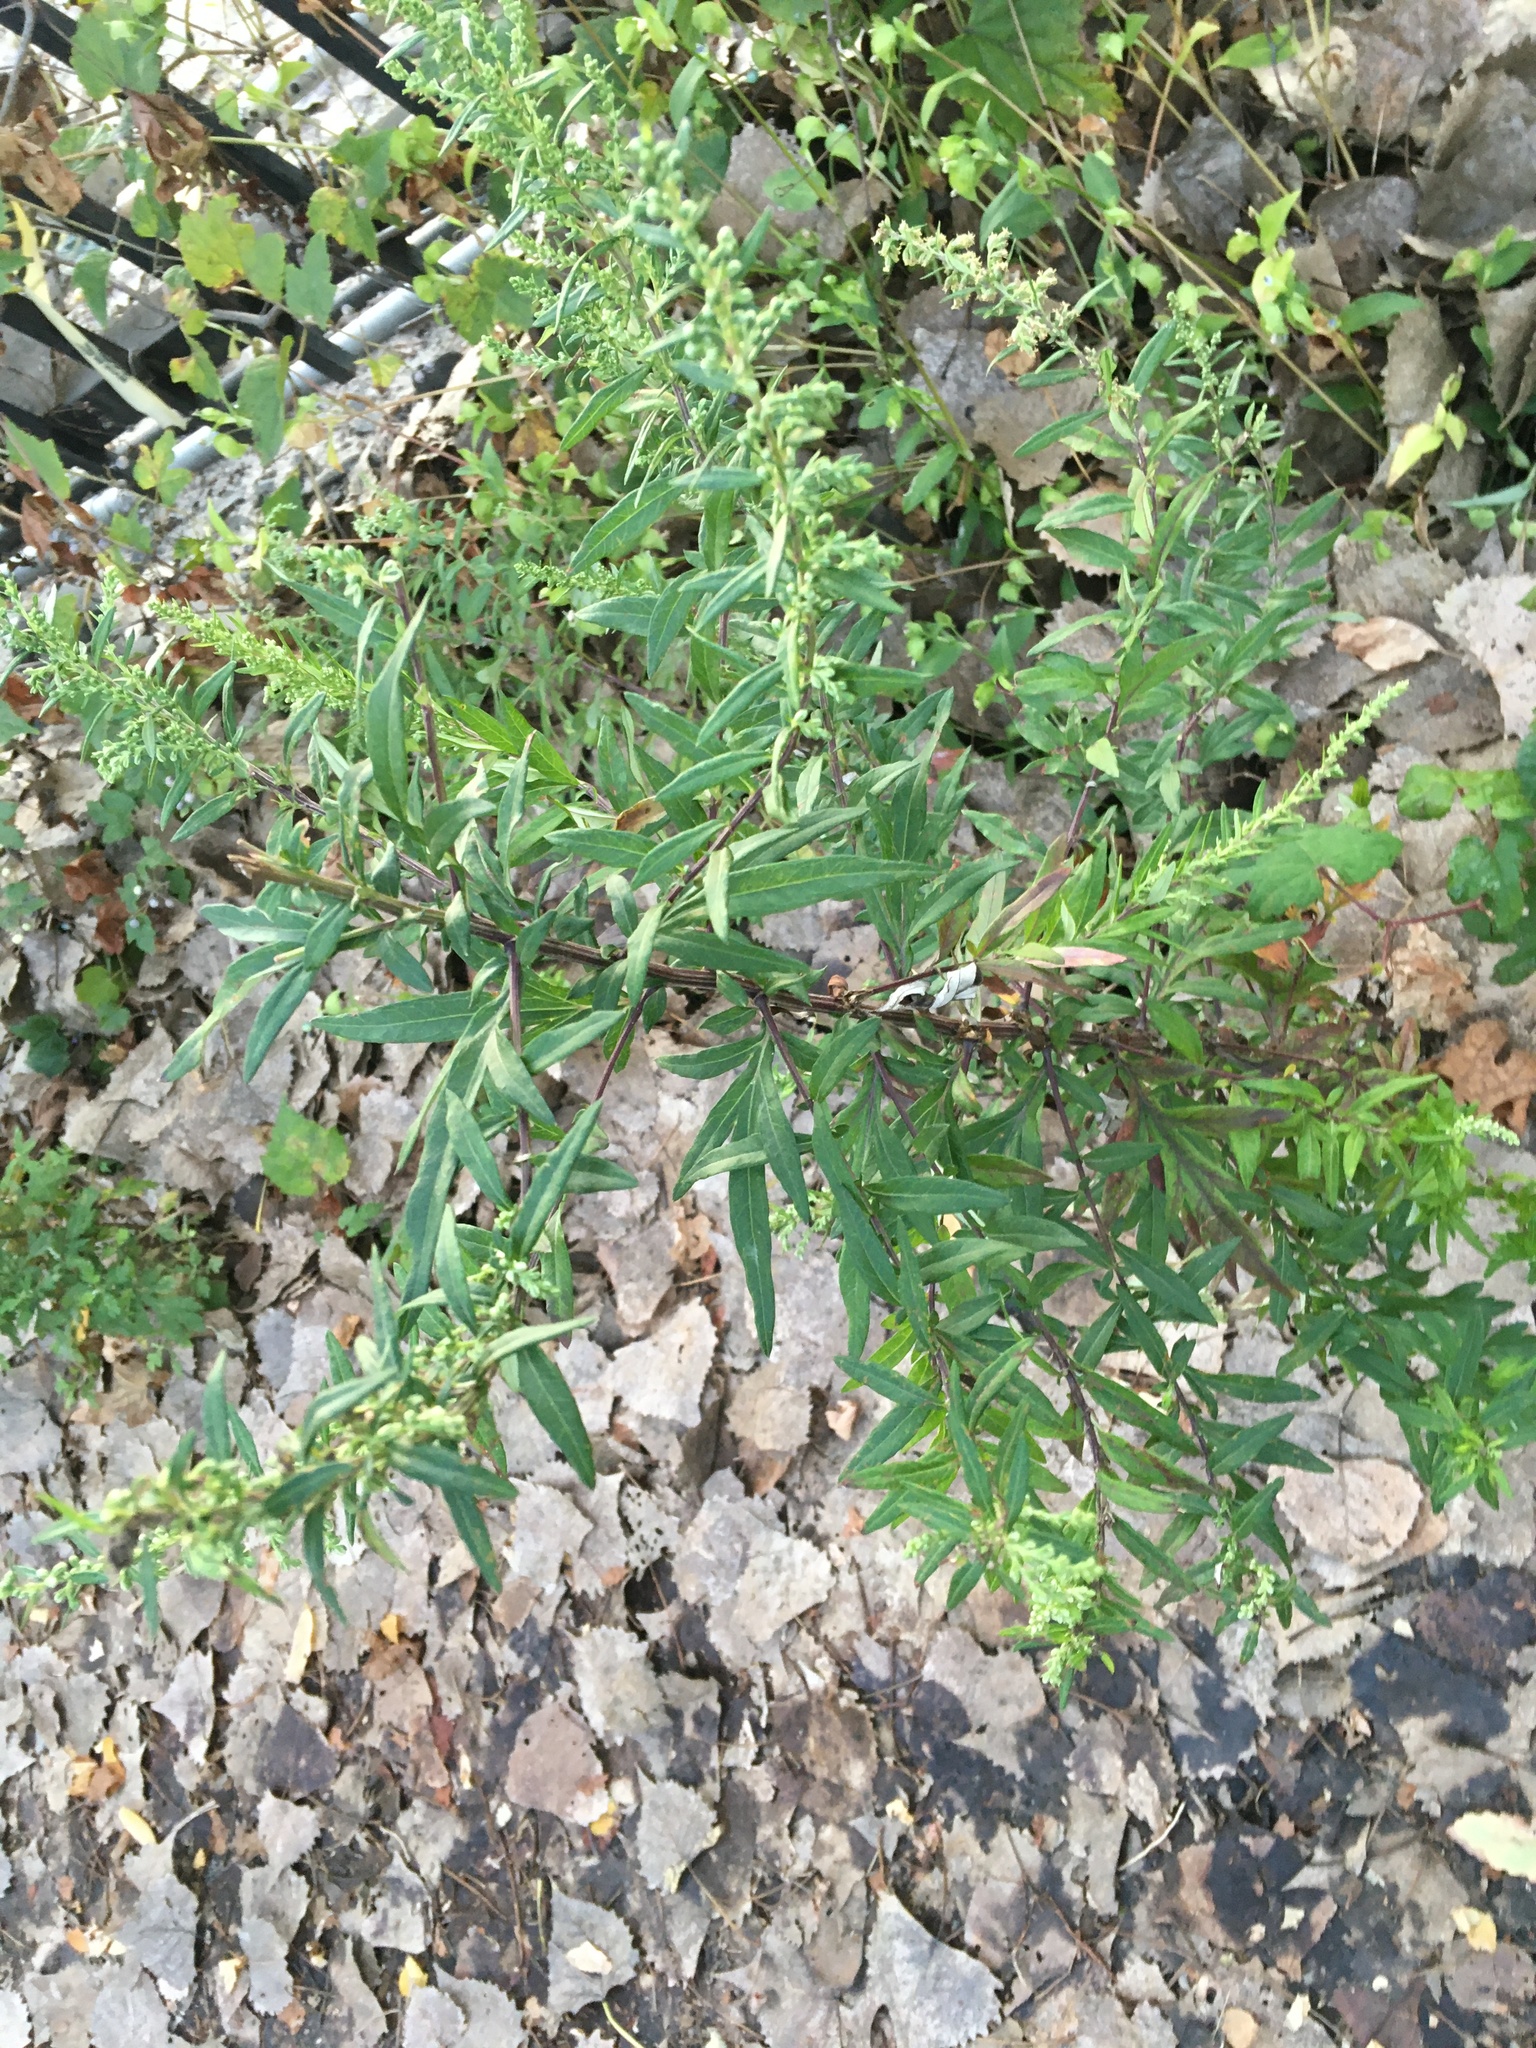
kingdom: Plantae
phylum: Tracheophyta
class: Magnoliopsida
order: Asterales
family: Asteraceae
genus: Artemisia
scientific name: Artemisia vulgaris
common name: Mugwort
